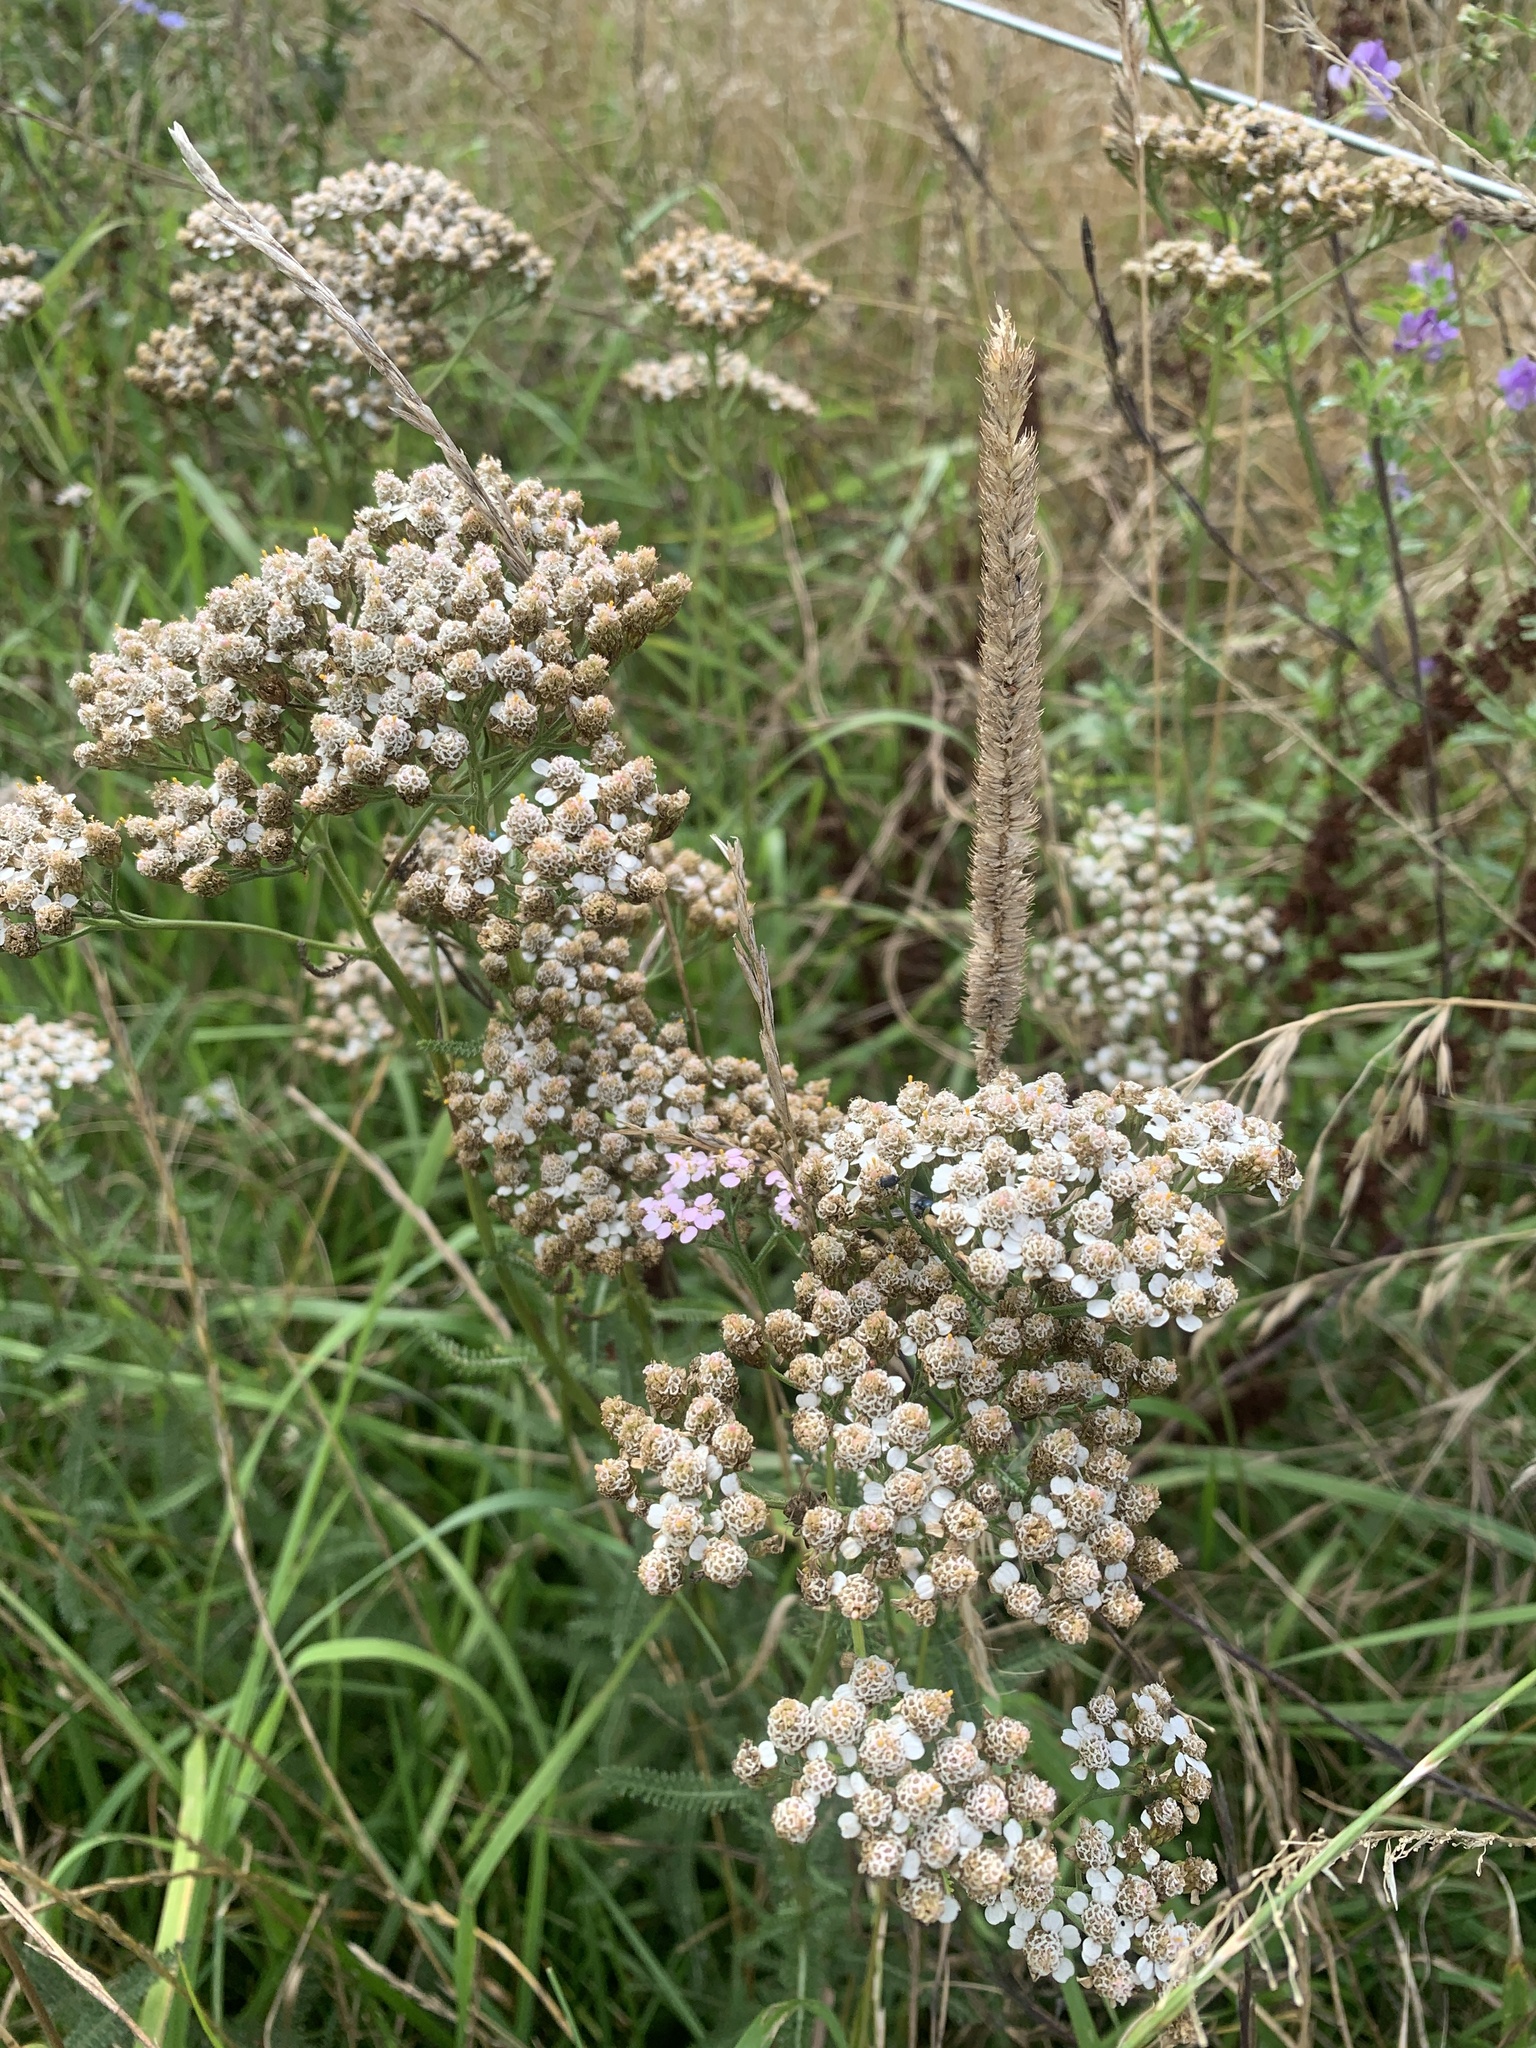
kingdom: Plantae
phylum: Tracheophyta
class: Magnoliopsida
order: Asterales
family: Asteraceae
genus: Achillea
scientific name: Achillea millefolium
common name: Yarrow
